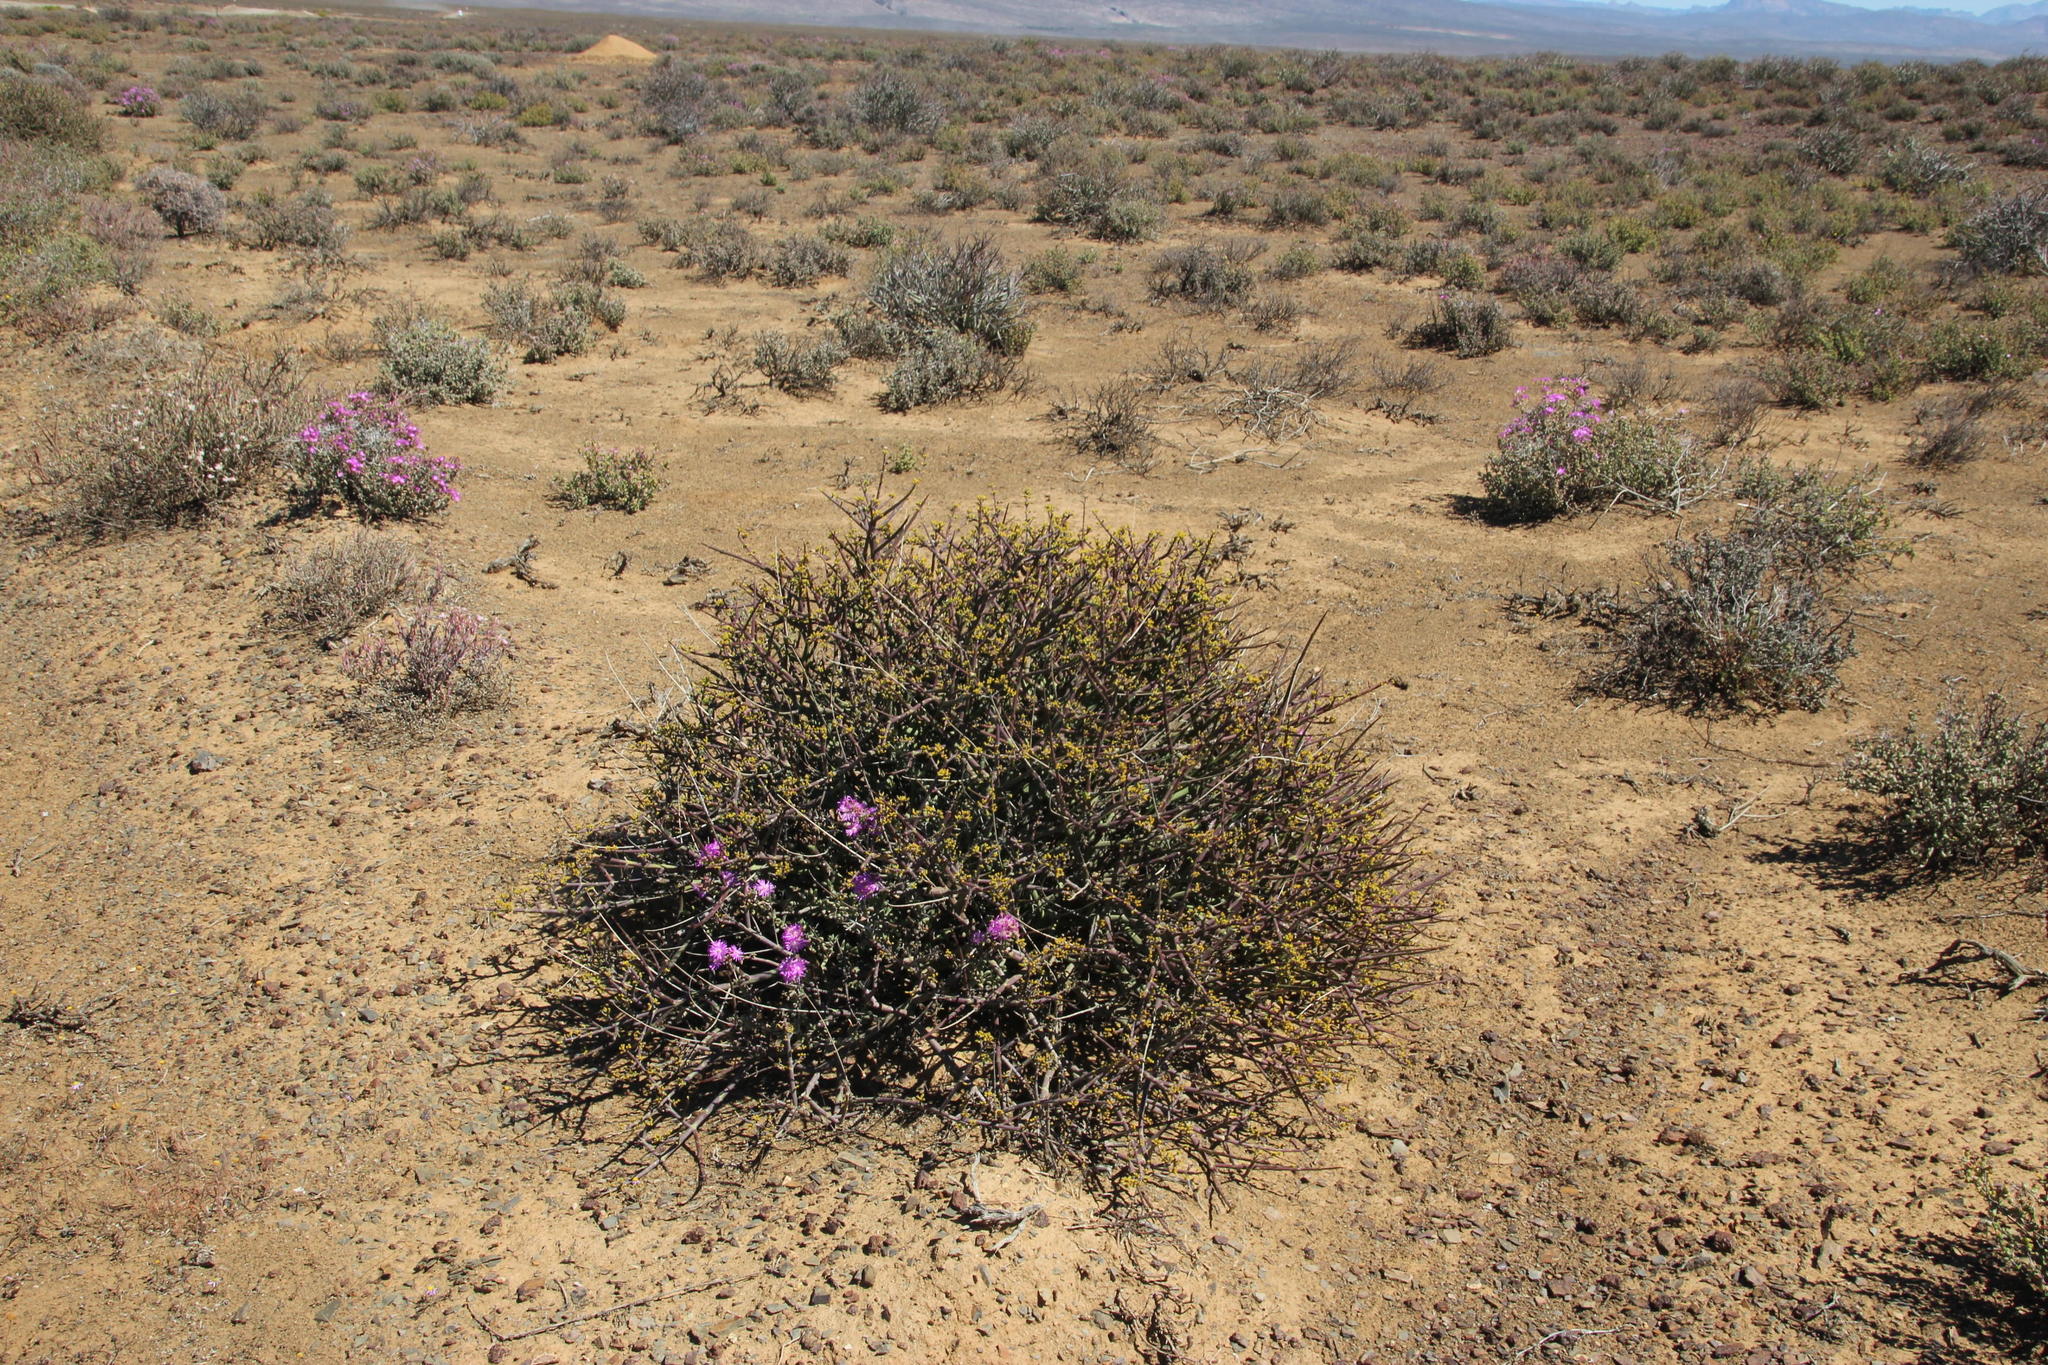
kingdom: Plantae
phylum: Tracheophyta
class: Magnoliopsida
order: Malpighiales
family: Euphorbiaceae
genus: Euphorbia
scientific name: Euphorbia rhombifolia
